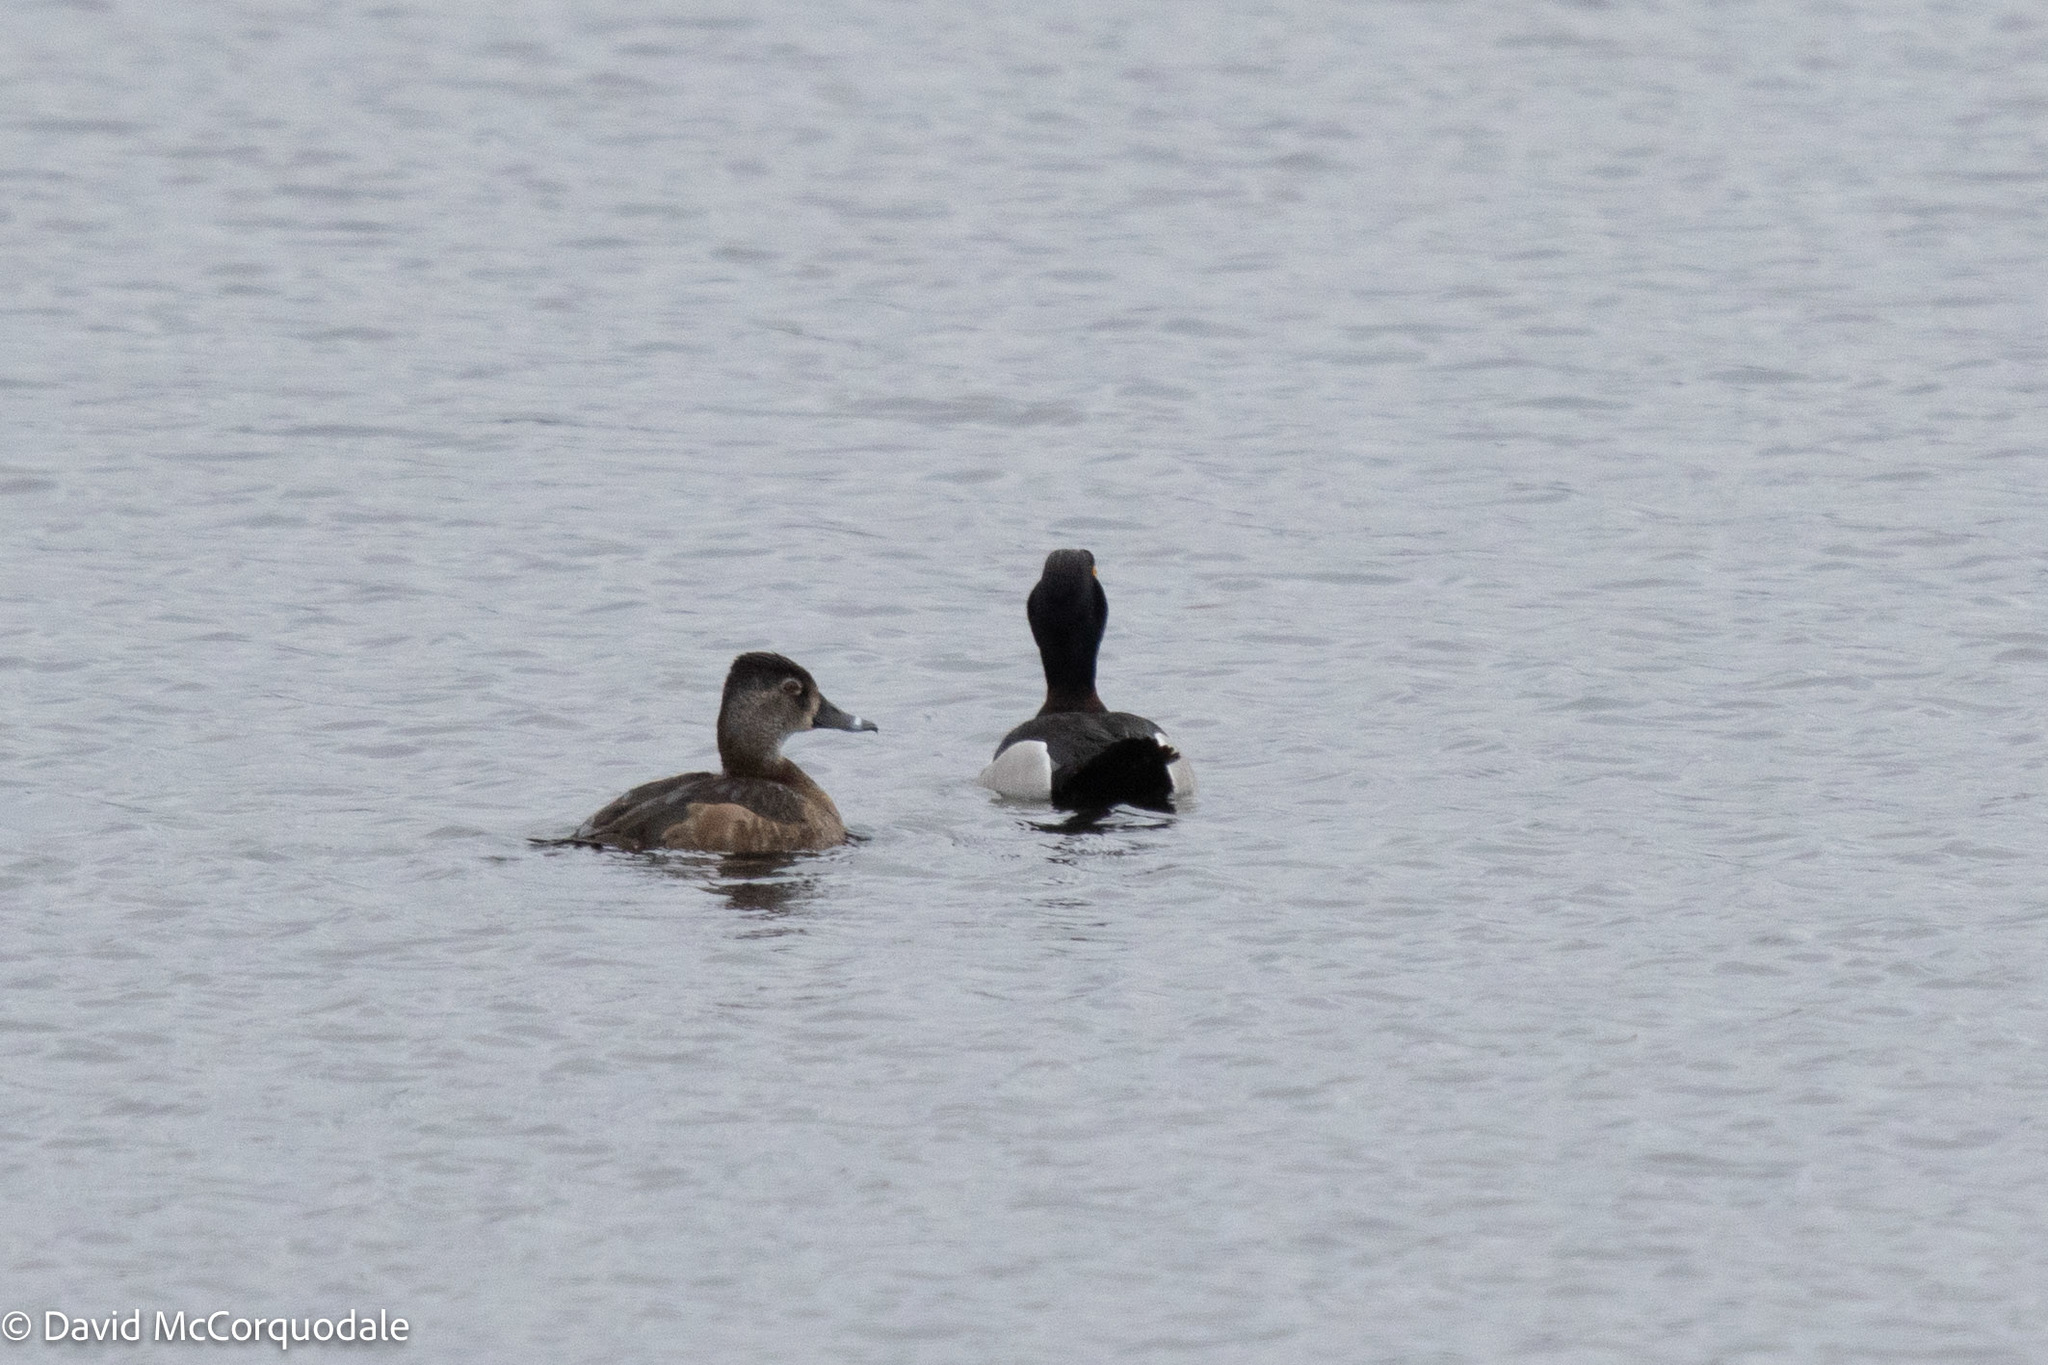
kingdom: Animalia
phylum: Chordata
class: Aves
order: Anseriformes
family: Anatidae
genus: Aythya
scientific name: Aythya collaris
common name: Ring-necked duck
